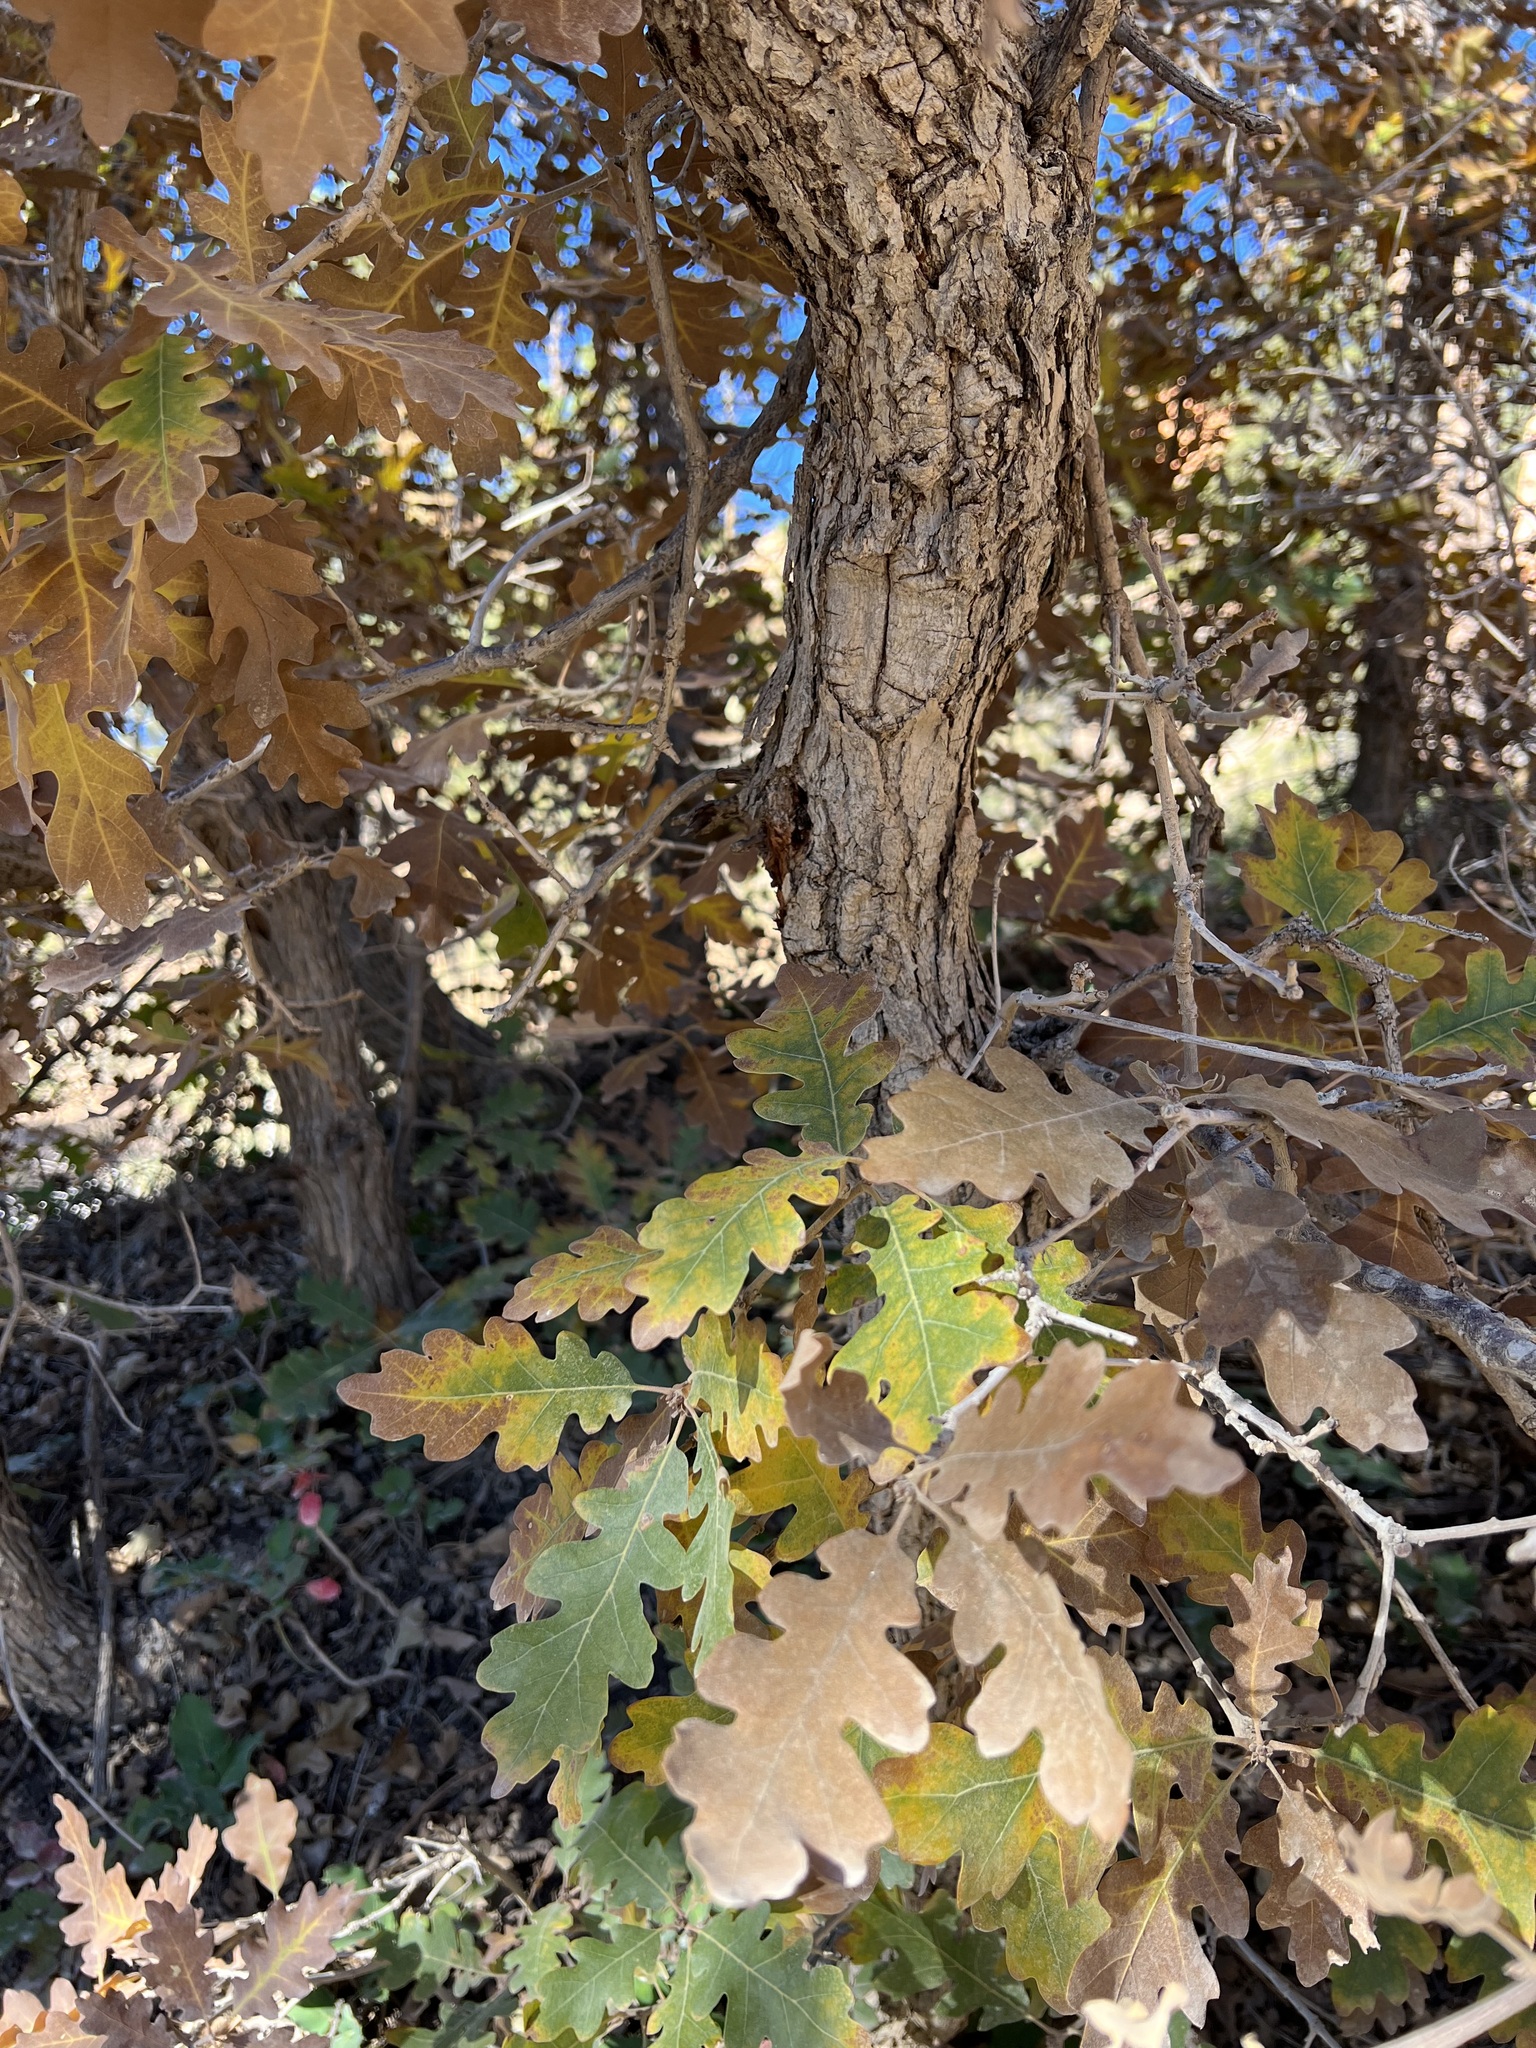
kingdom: Plantae
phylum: Tracheophyta
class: Magnoliopsida
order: Fagales
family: Fagaceae
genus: Quercus
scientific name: Quercus gambelii
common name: Gambel oak
